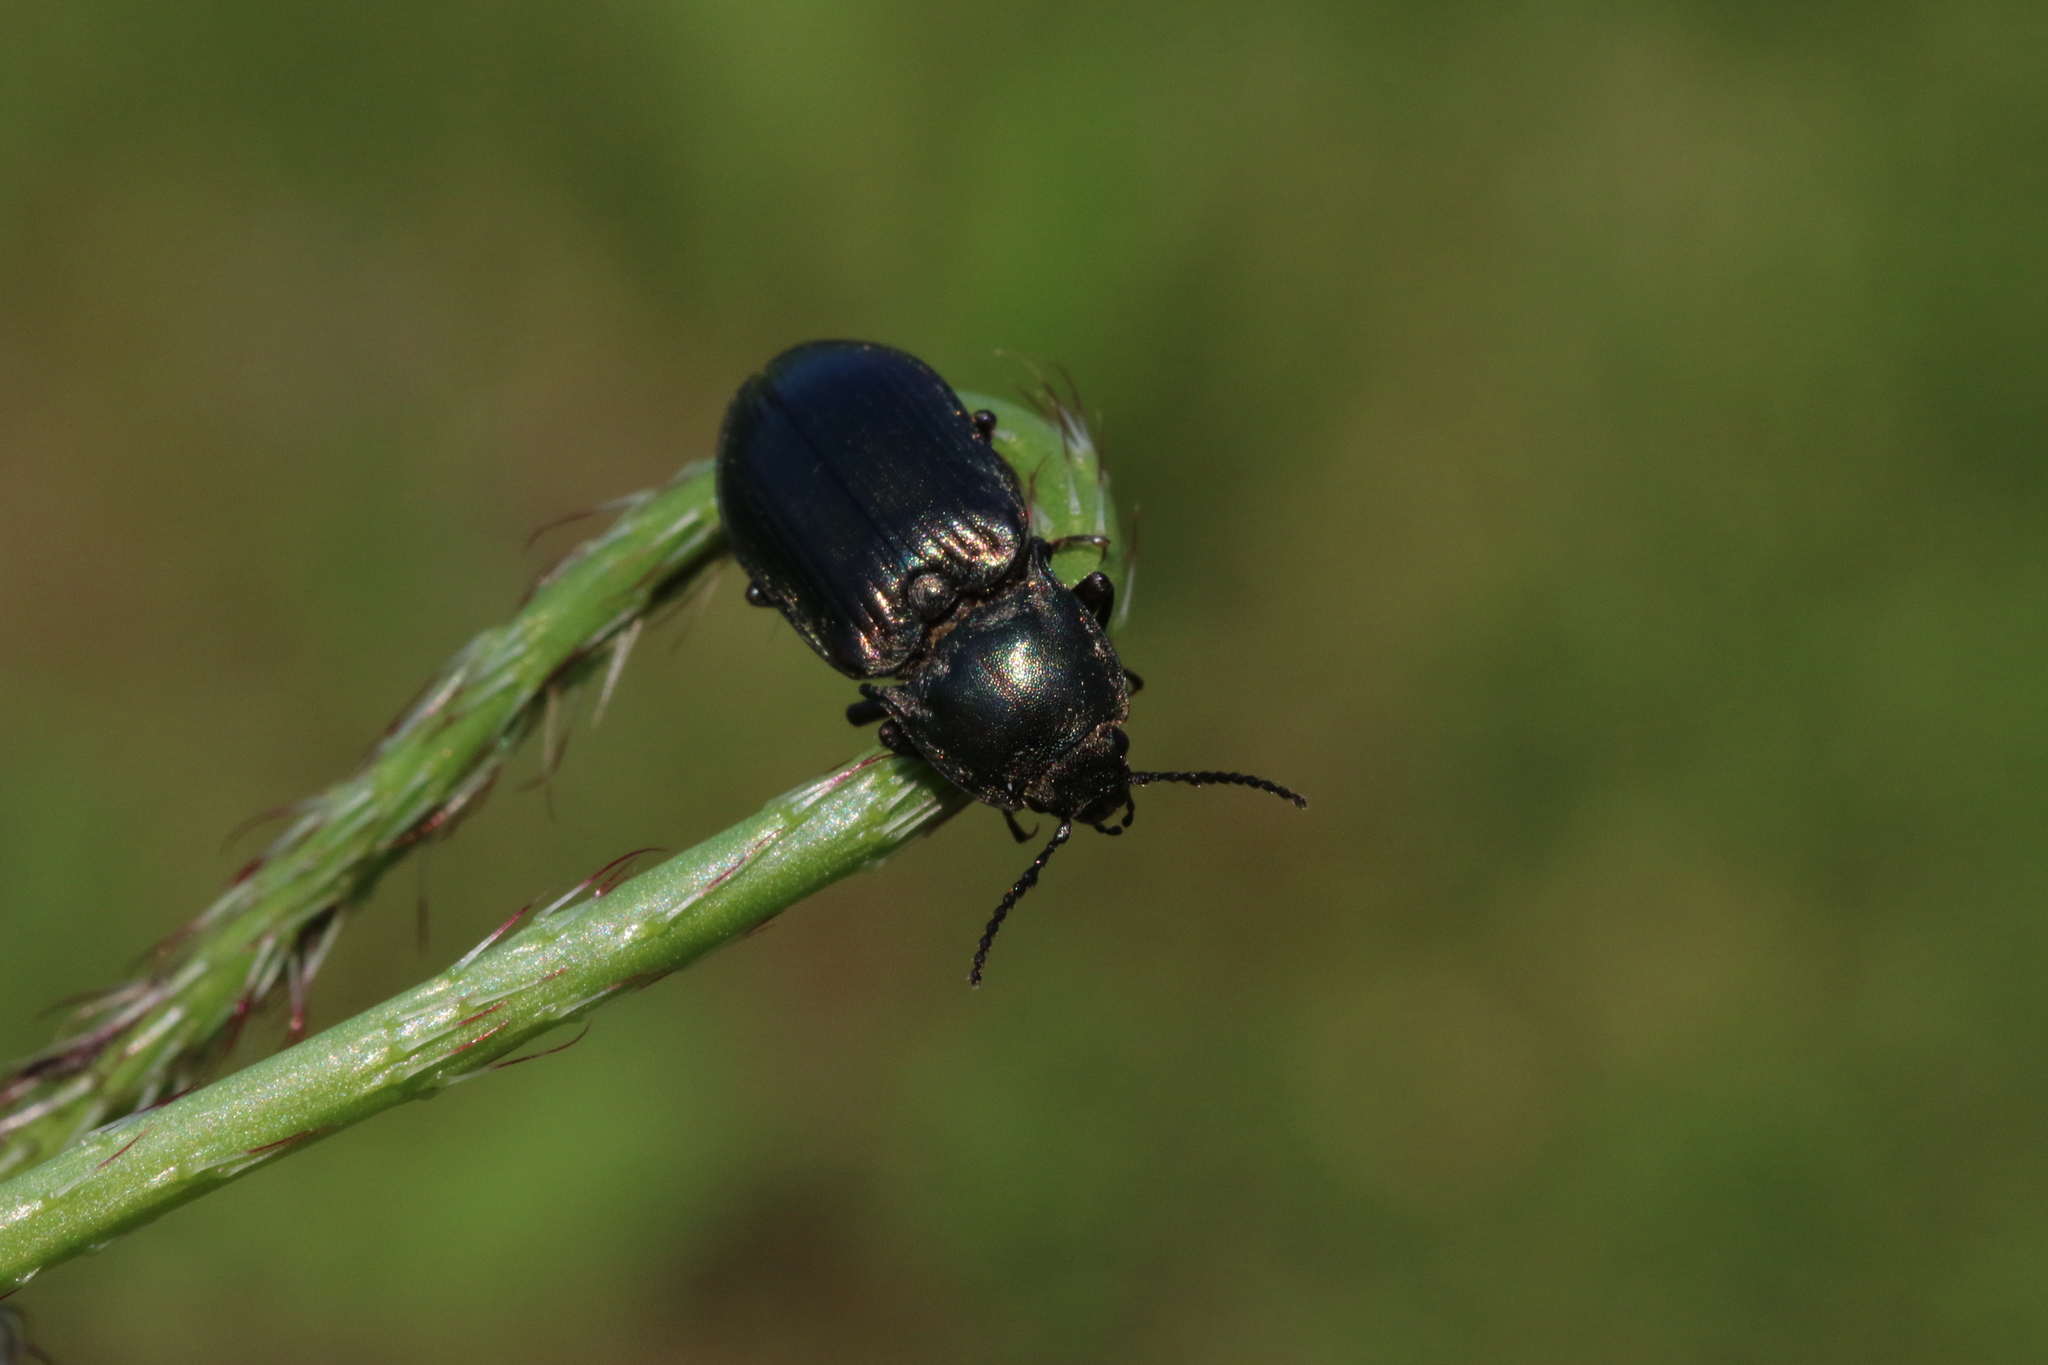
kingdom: Animalia
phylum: Arthropoda
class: Insecta
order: Coleoptera
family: Elateridae
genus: Selatosomus
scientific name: Selatosomus latus
